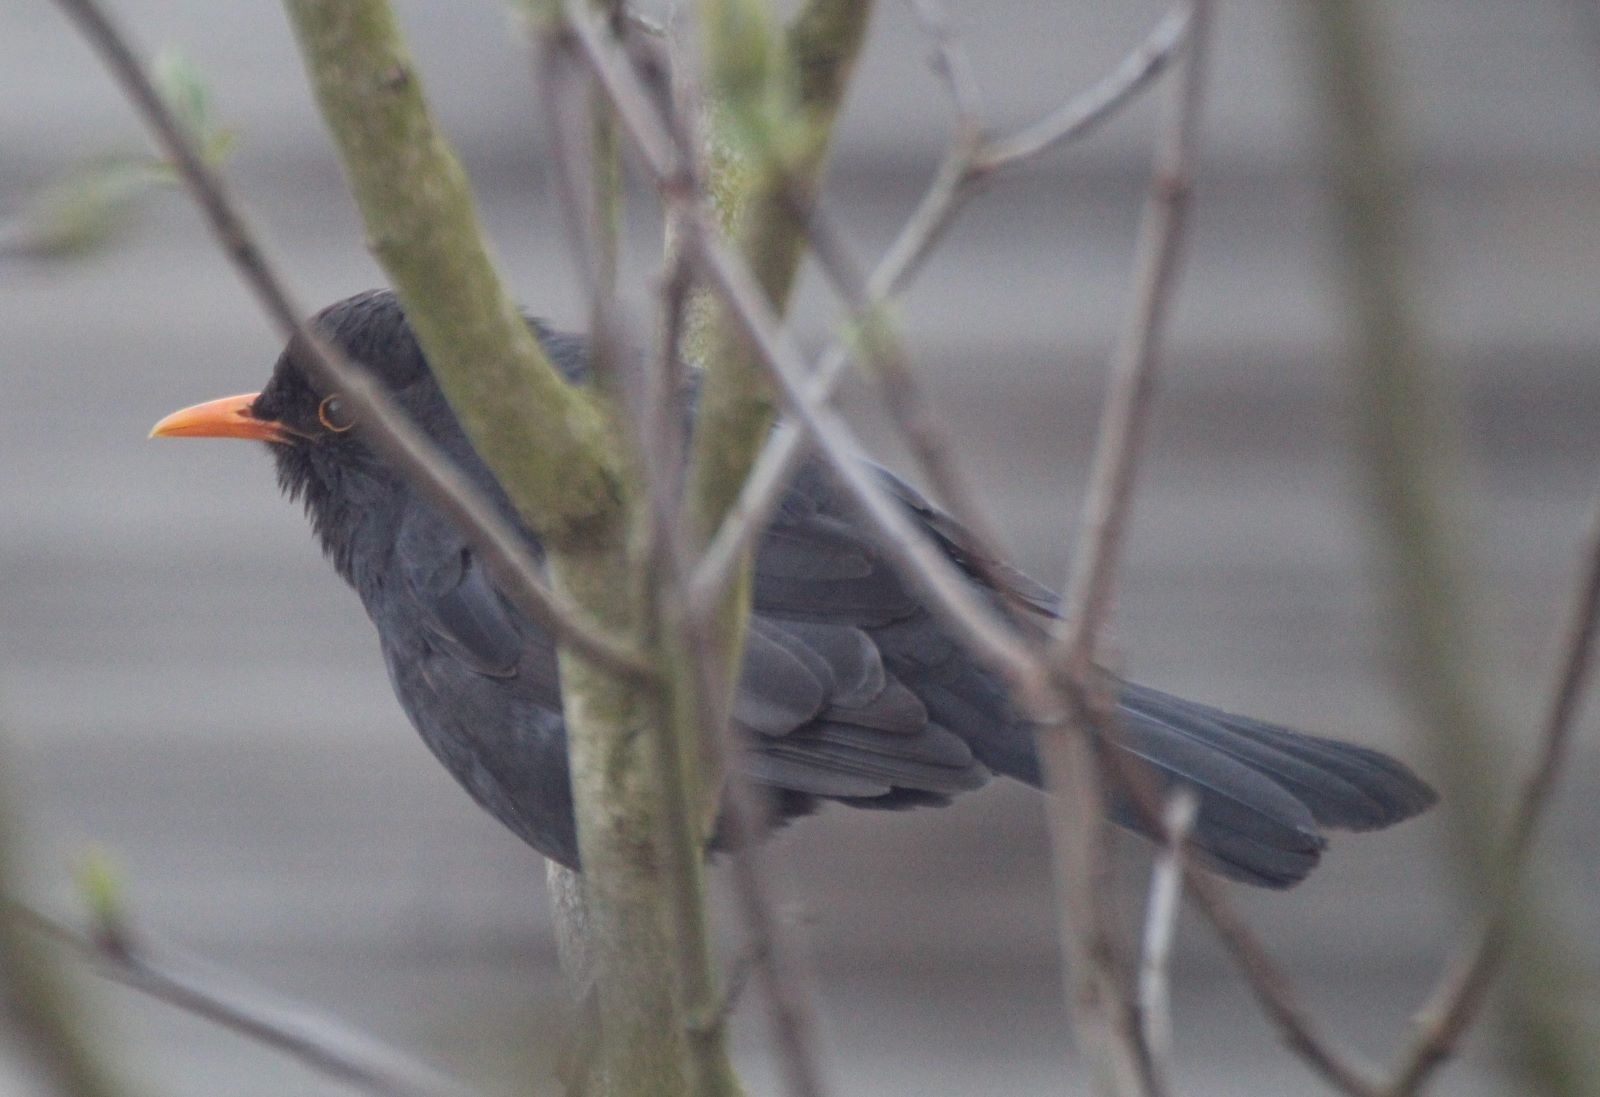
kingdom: Animalia
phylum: Chordata
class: Aves
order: Passeriformes
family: Turdidae
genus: Turdus
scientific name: Turdus merula
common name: Common blackbird
